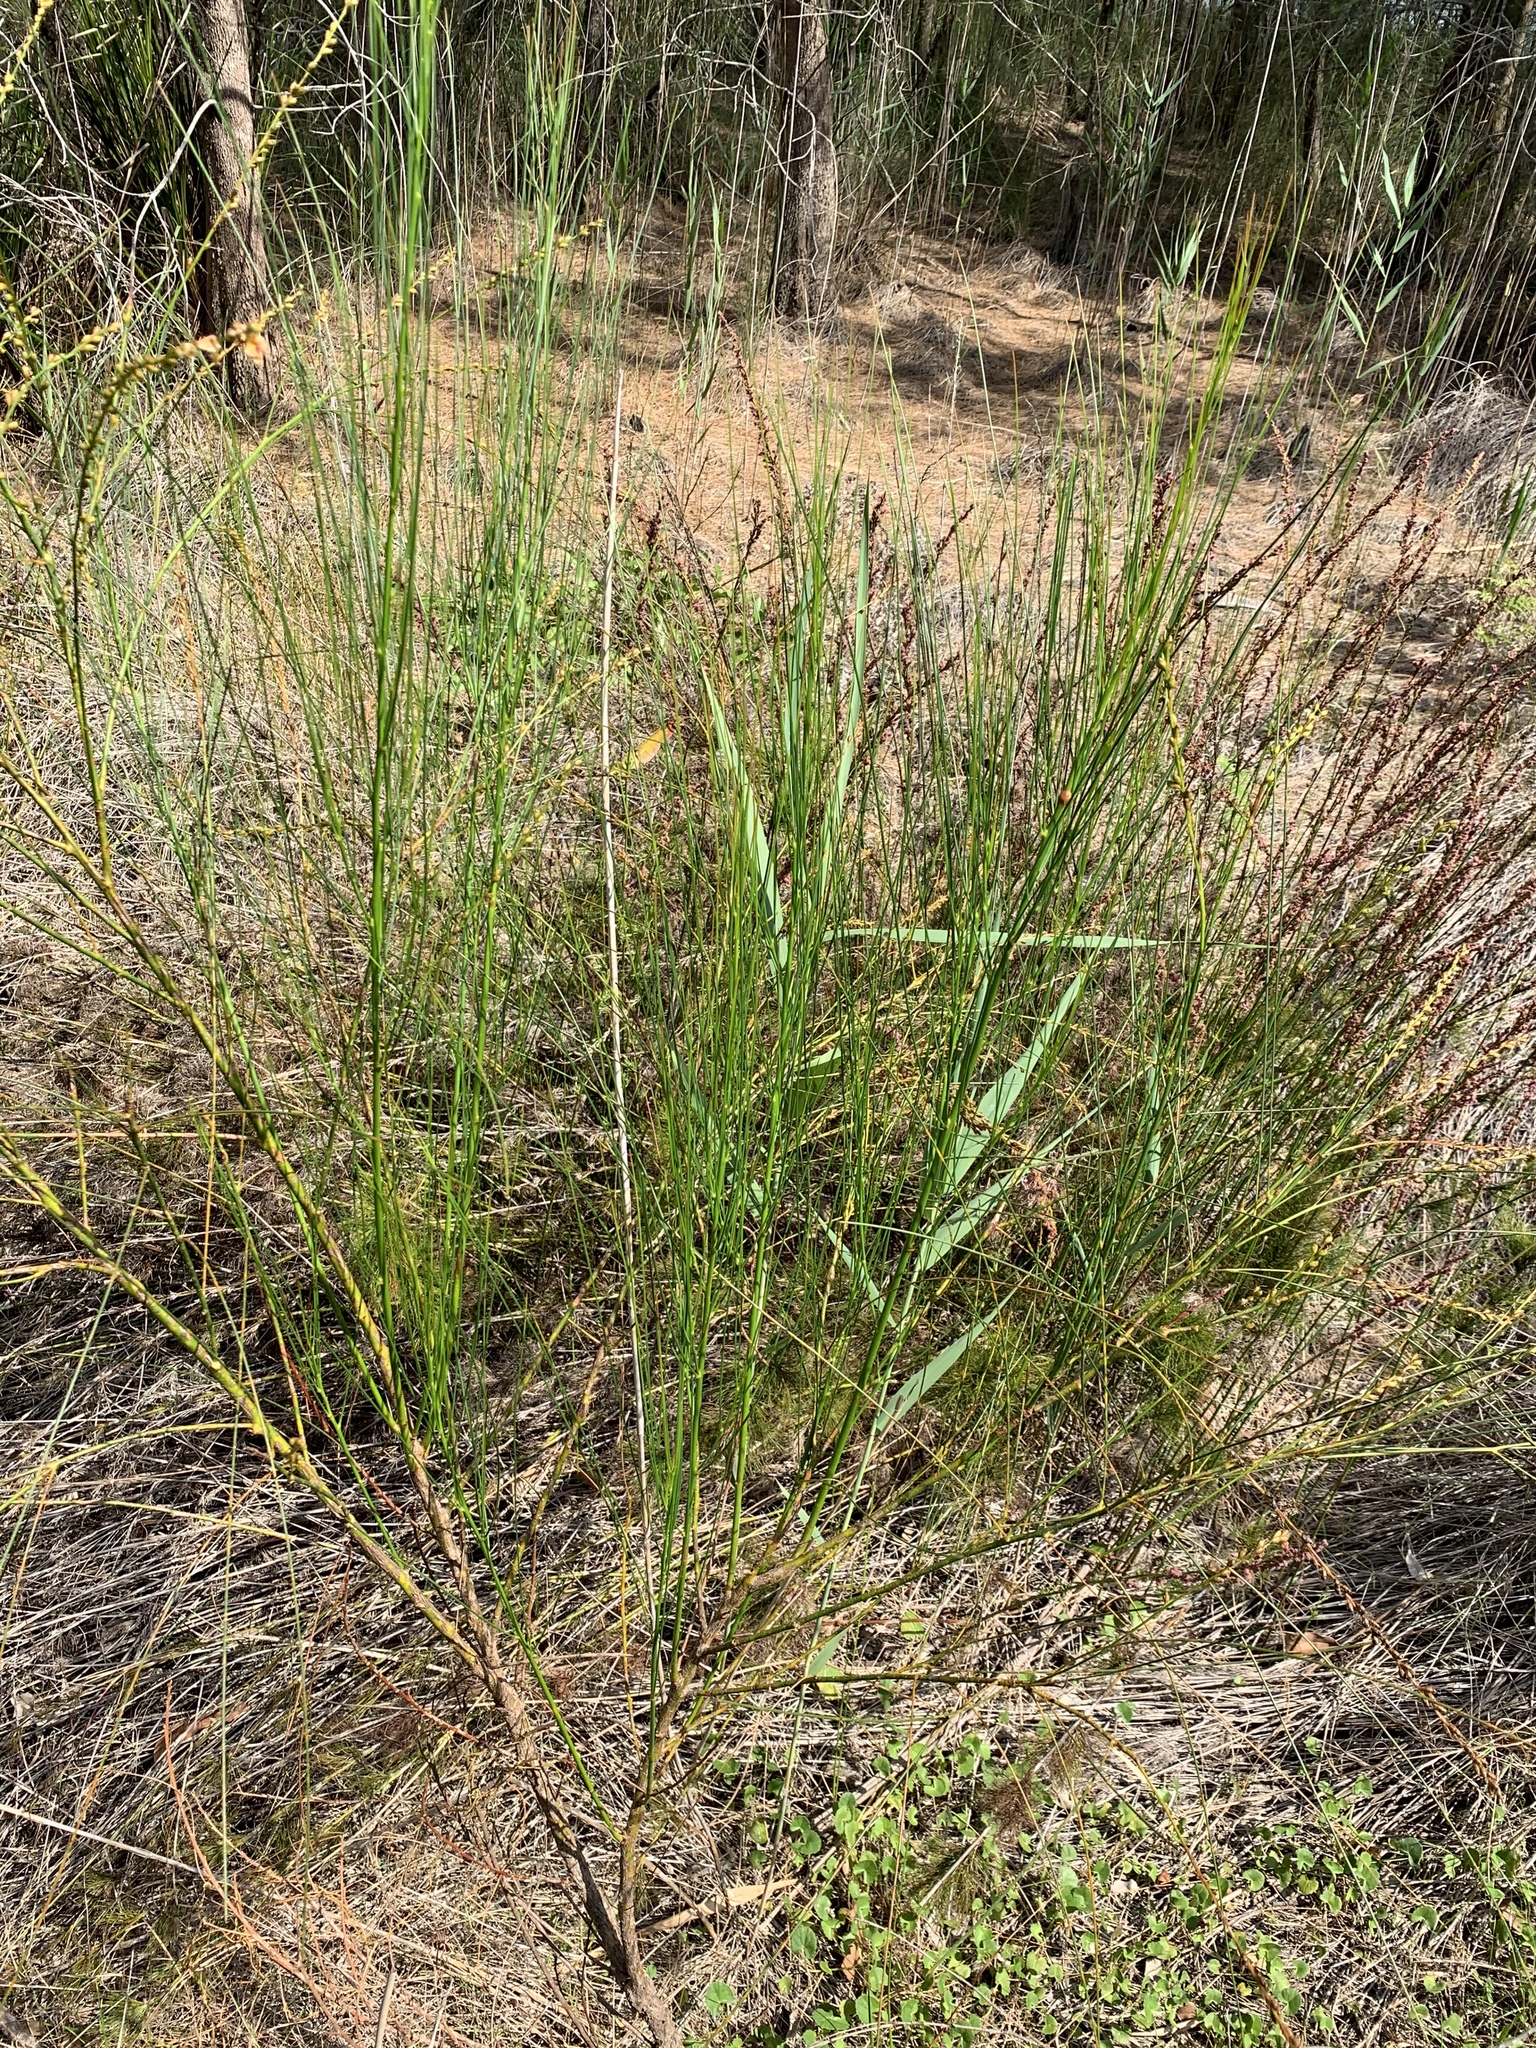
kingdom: Plantae
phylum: Tracheophyta
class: Magnoliopsida
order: Fabales
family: Fabaceae
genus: Viminaria
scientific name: Viminaria juncea
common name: Golden spray
